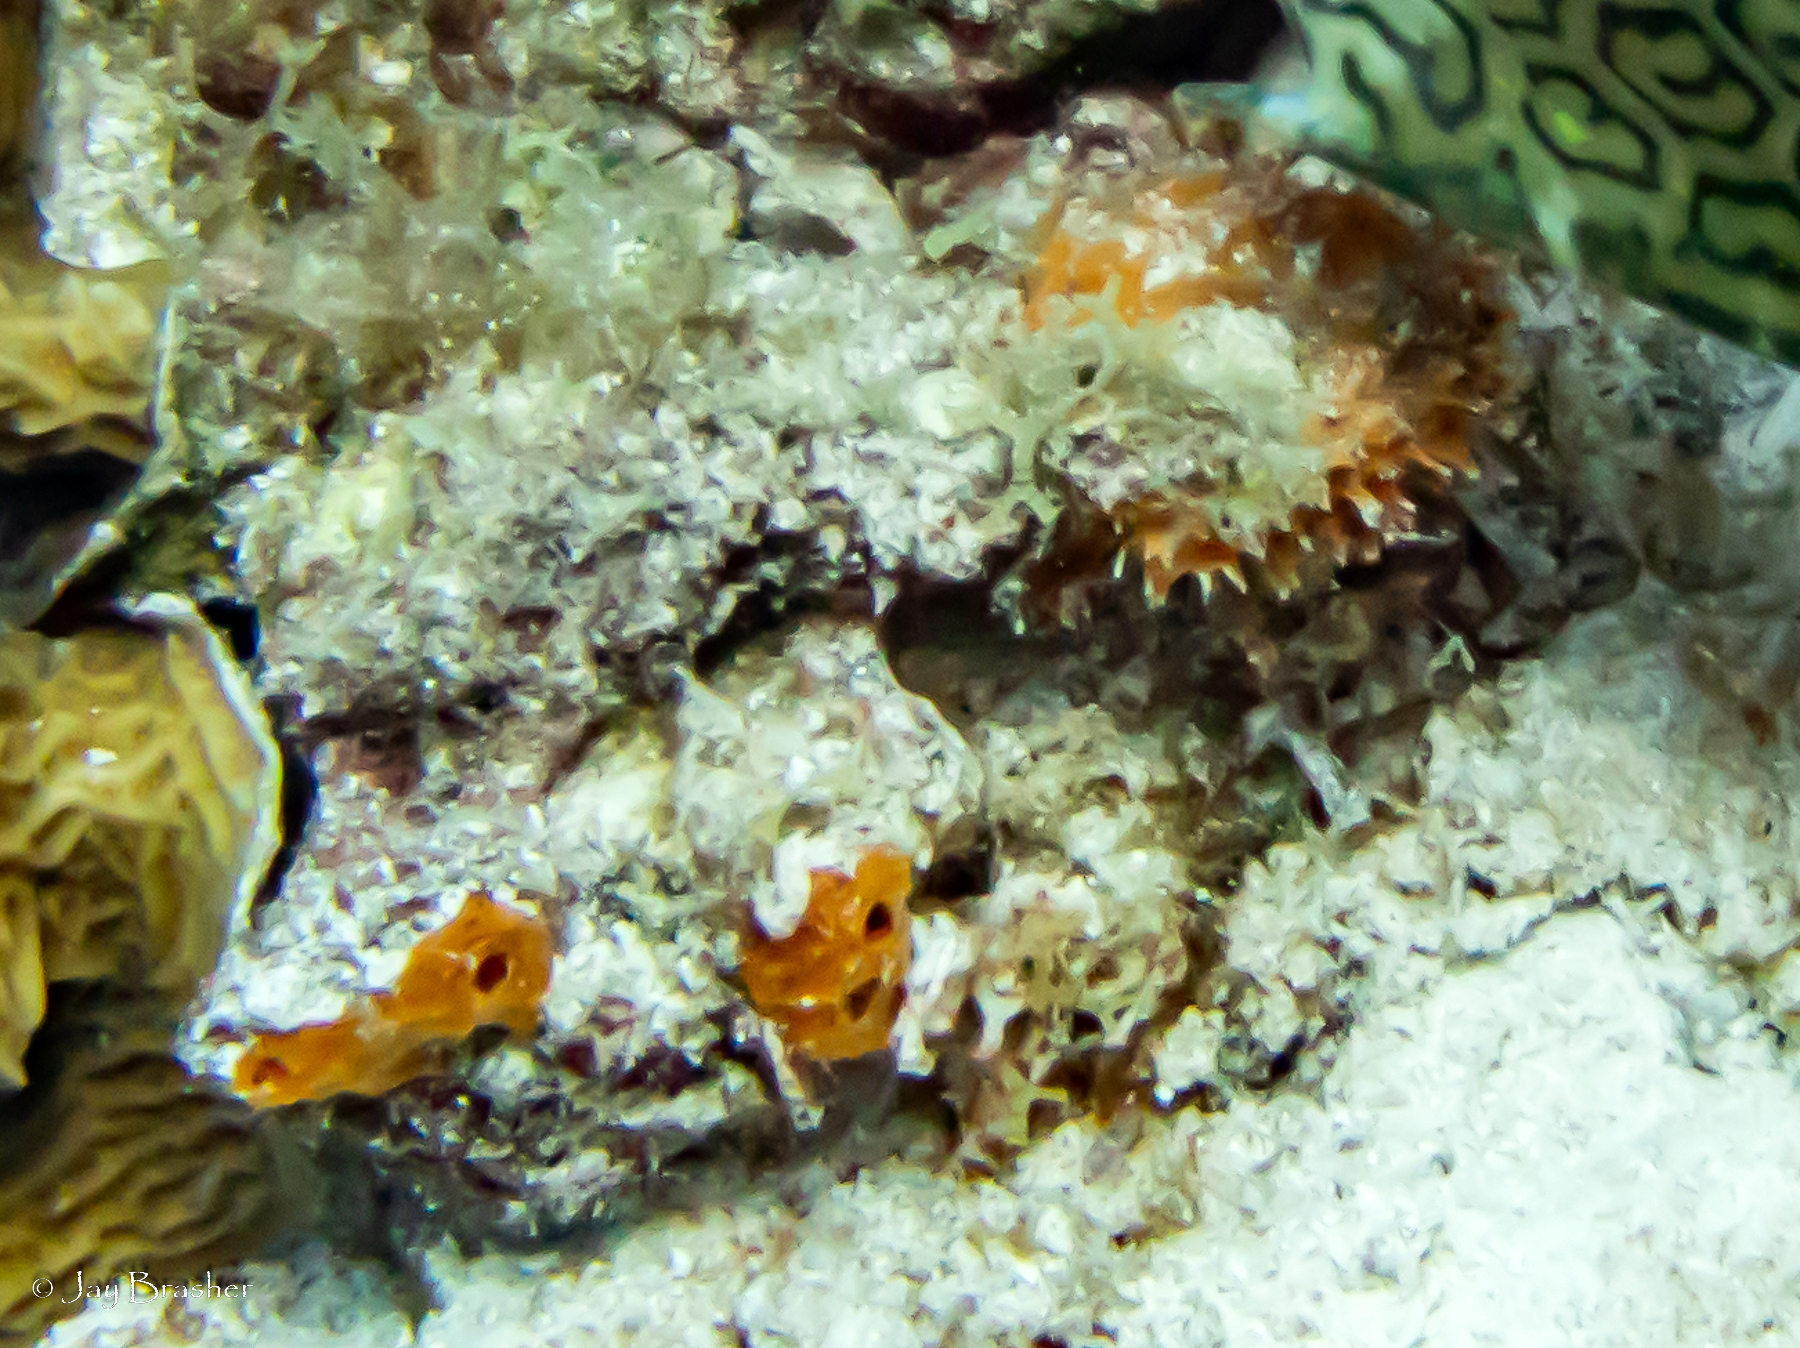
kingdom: Animalia
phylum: Porifera
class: Demospongiae
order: Scopalinida
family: Scopalinidae
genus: Scopalina
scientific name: Scopalina ruetzleri
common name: Orange lumpy encrusting sponge
